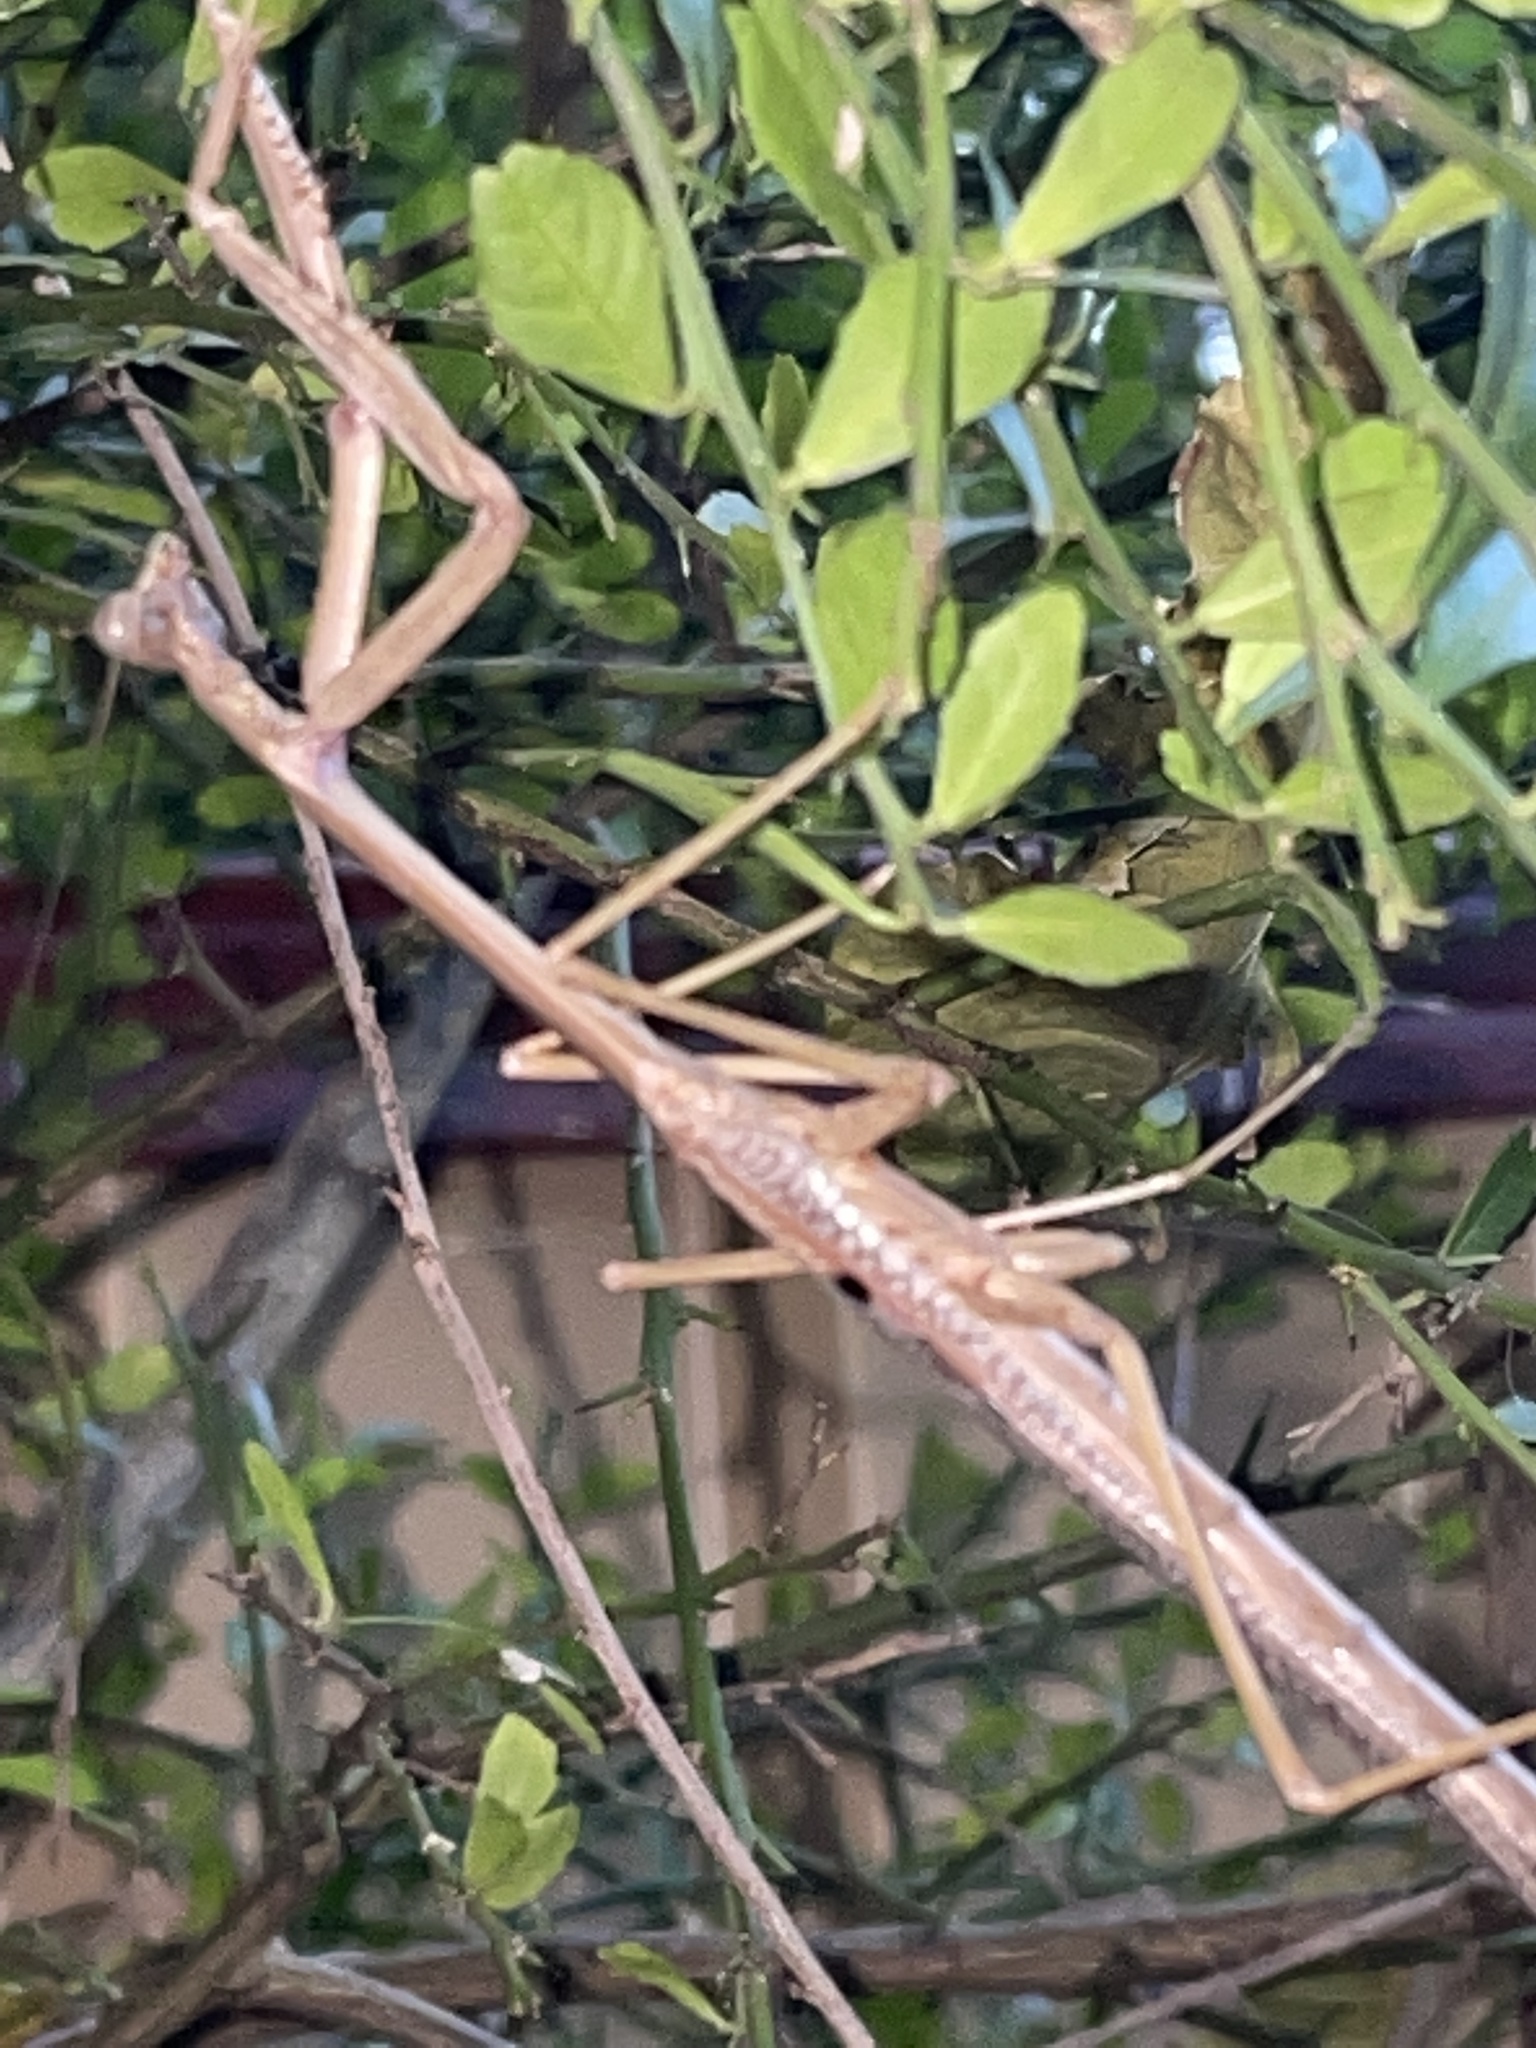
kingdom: Animalia
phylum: Arthropoda
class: Insecta
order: Mantodea
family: Mantidae
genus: Archimantis
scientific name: Archimantis latistyla
